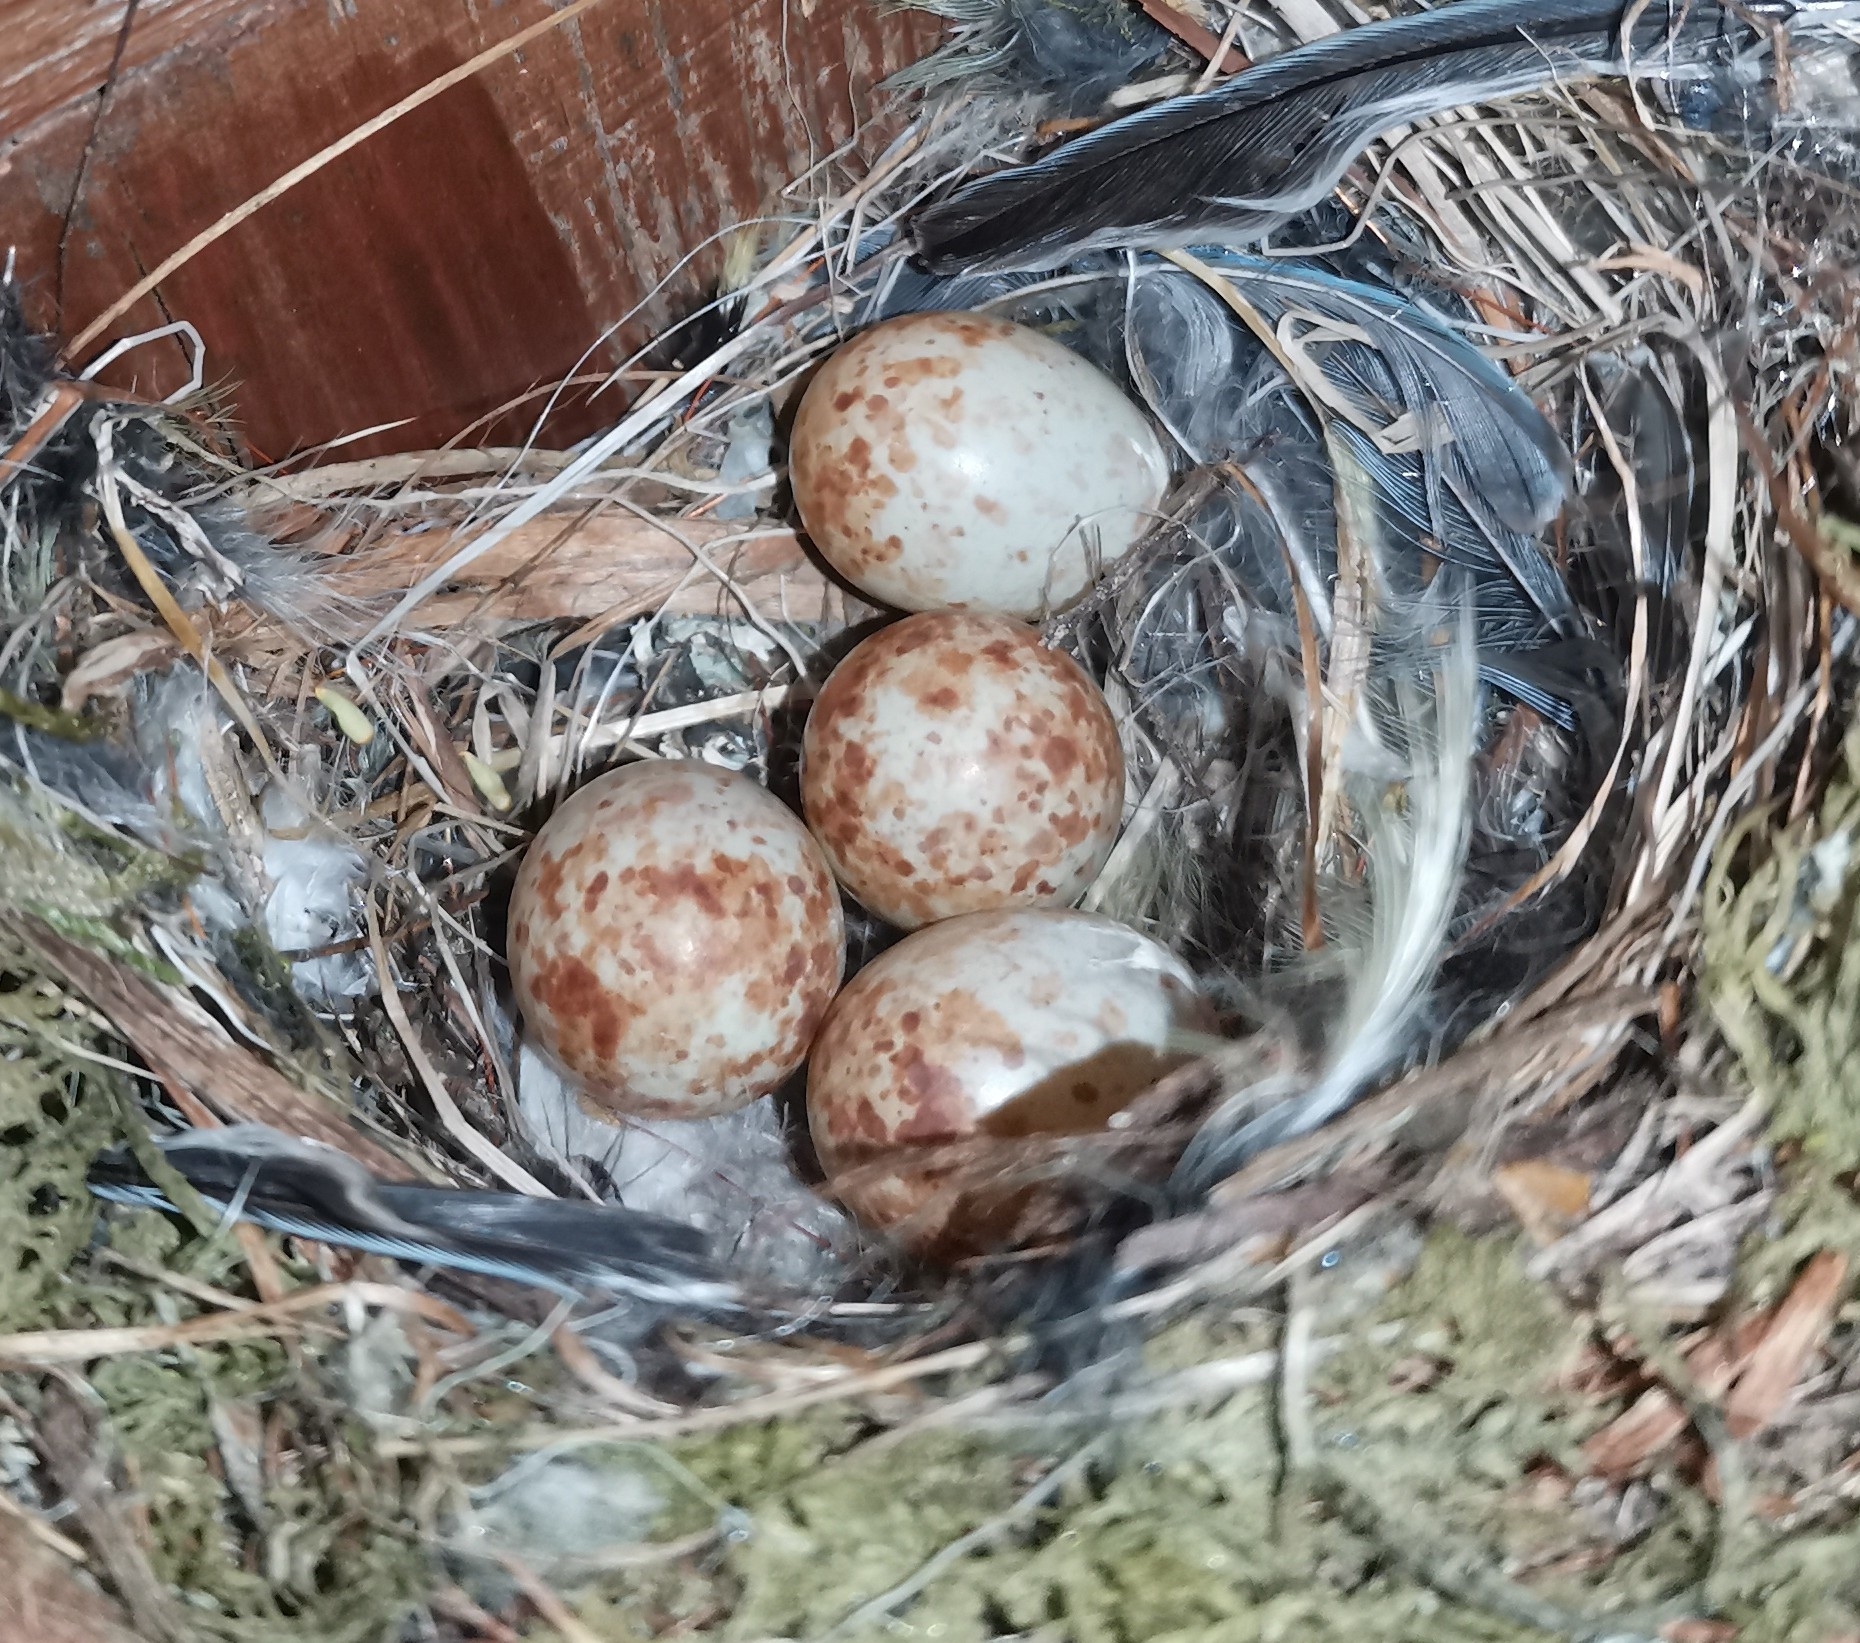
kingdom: Animalia
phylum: Chordata
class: Aves
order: Passeriformes
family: Muscicapidae
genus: Muscicapa
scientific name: Muscicapa striata
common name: Spotted flycatcher
